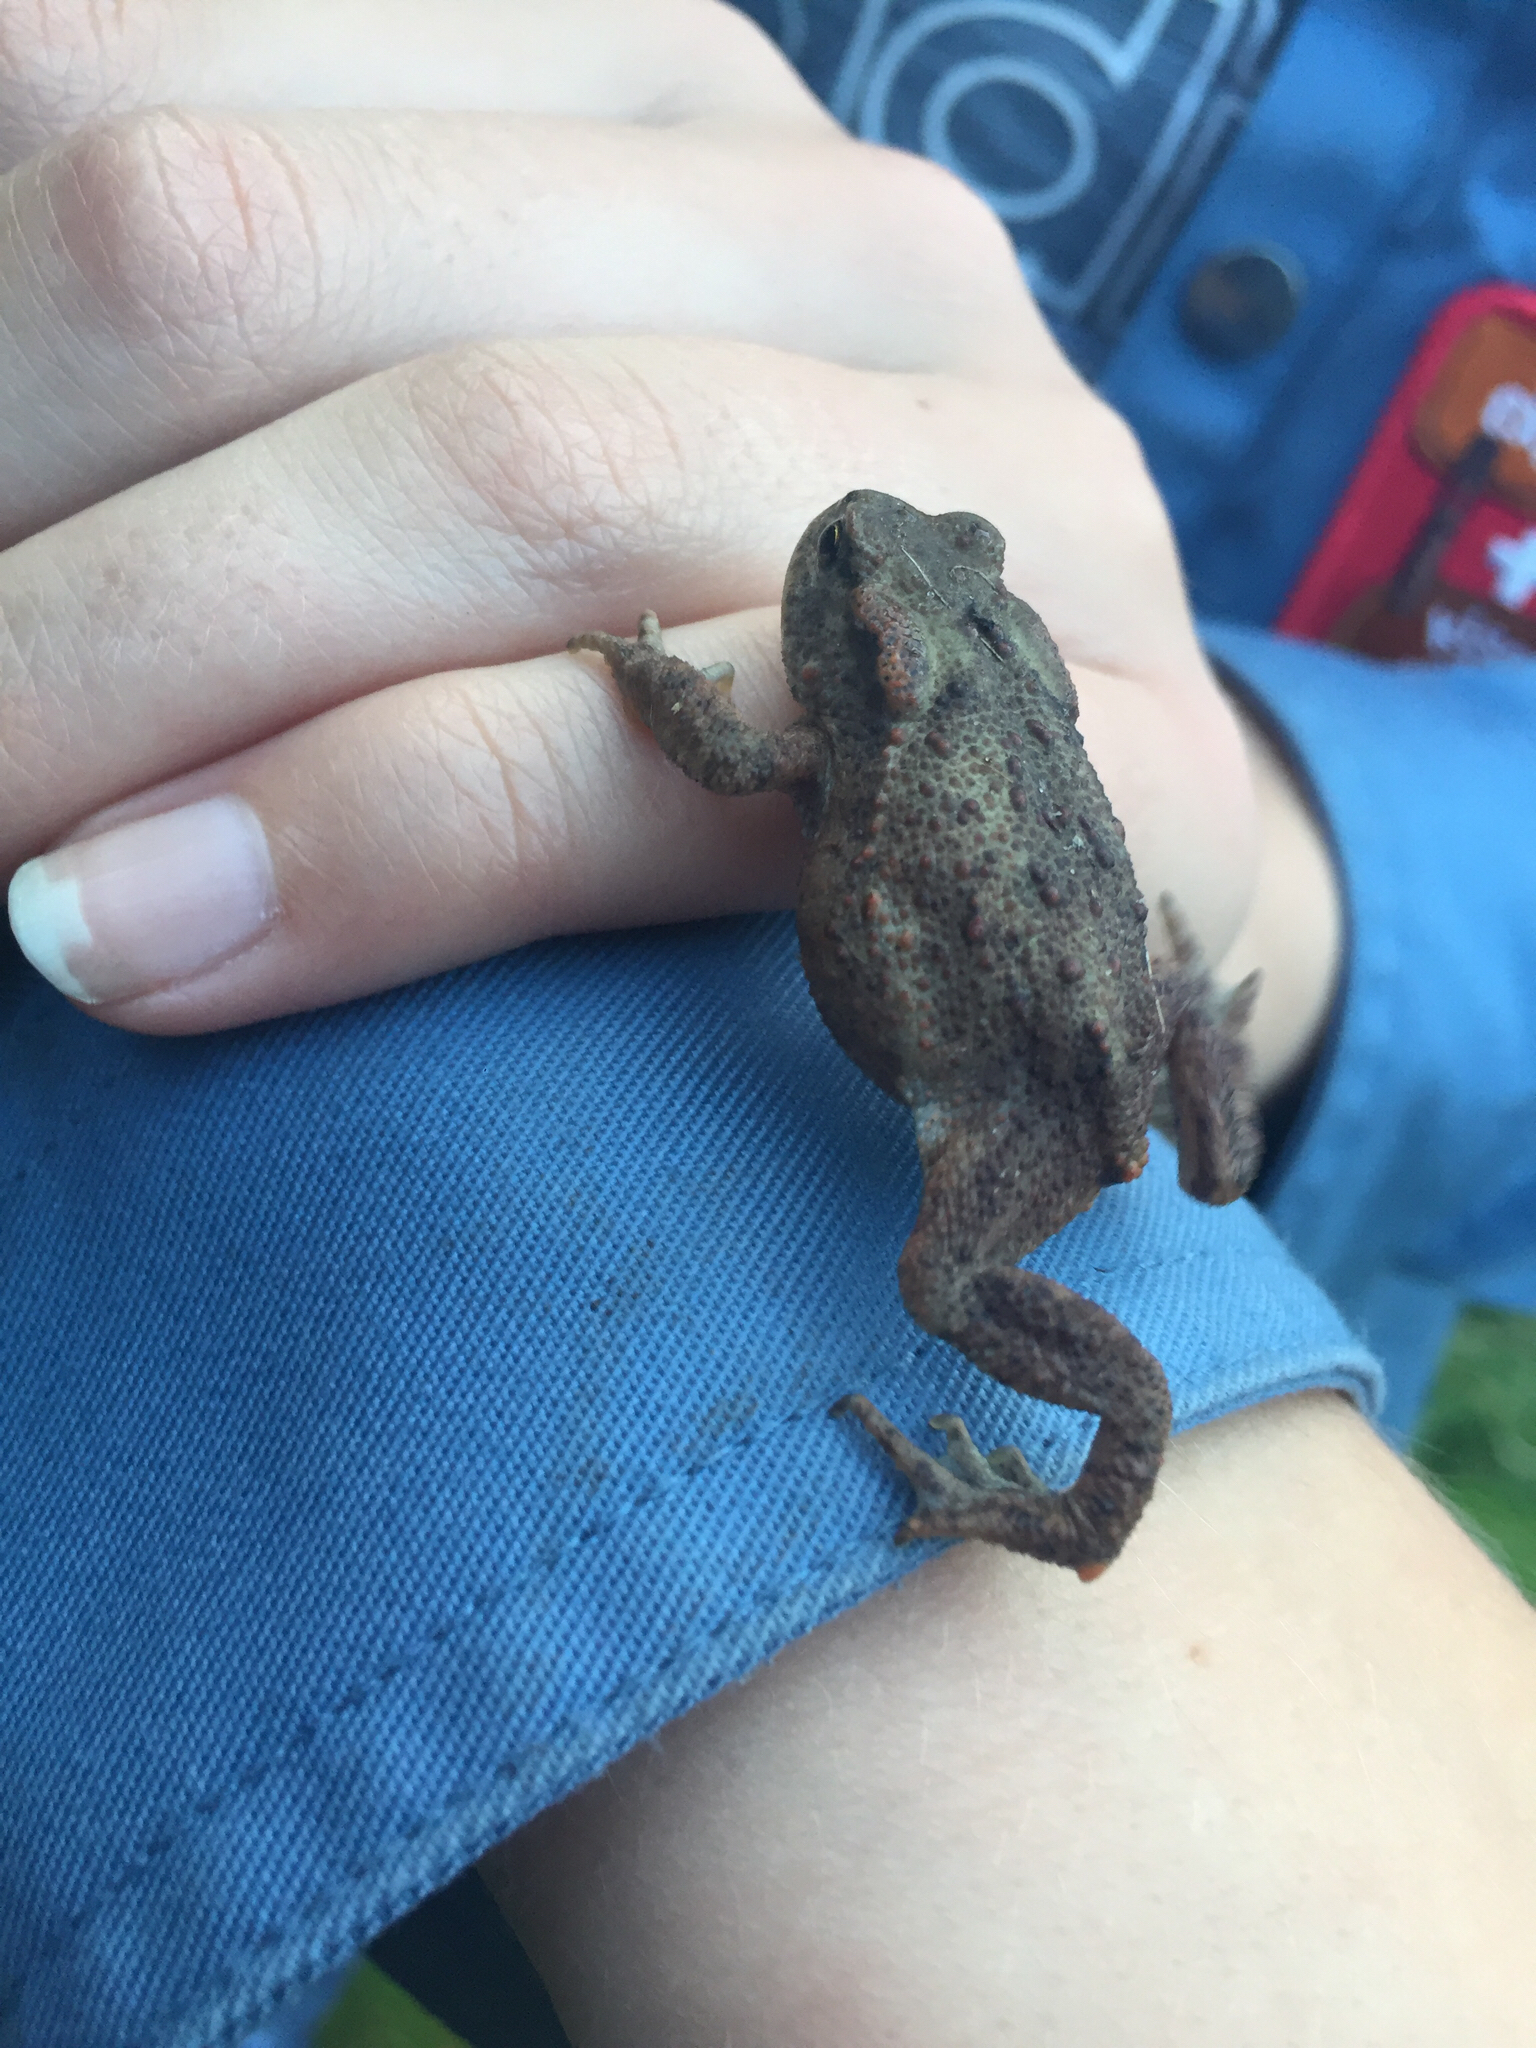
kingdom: Animalia
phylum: Chordata
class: Amphibia
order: Anura
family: Bufonidae
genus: Bufo
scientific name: Bufo bufo
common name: Common toad
